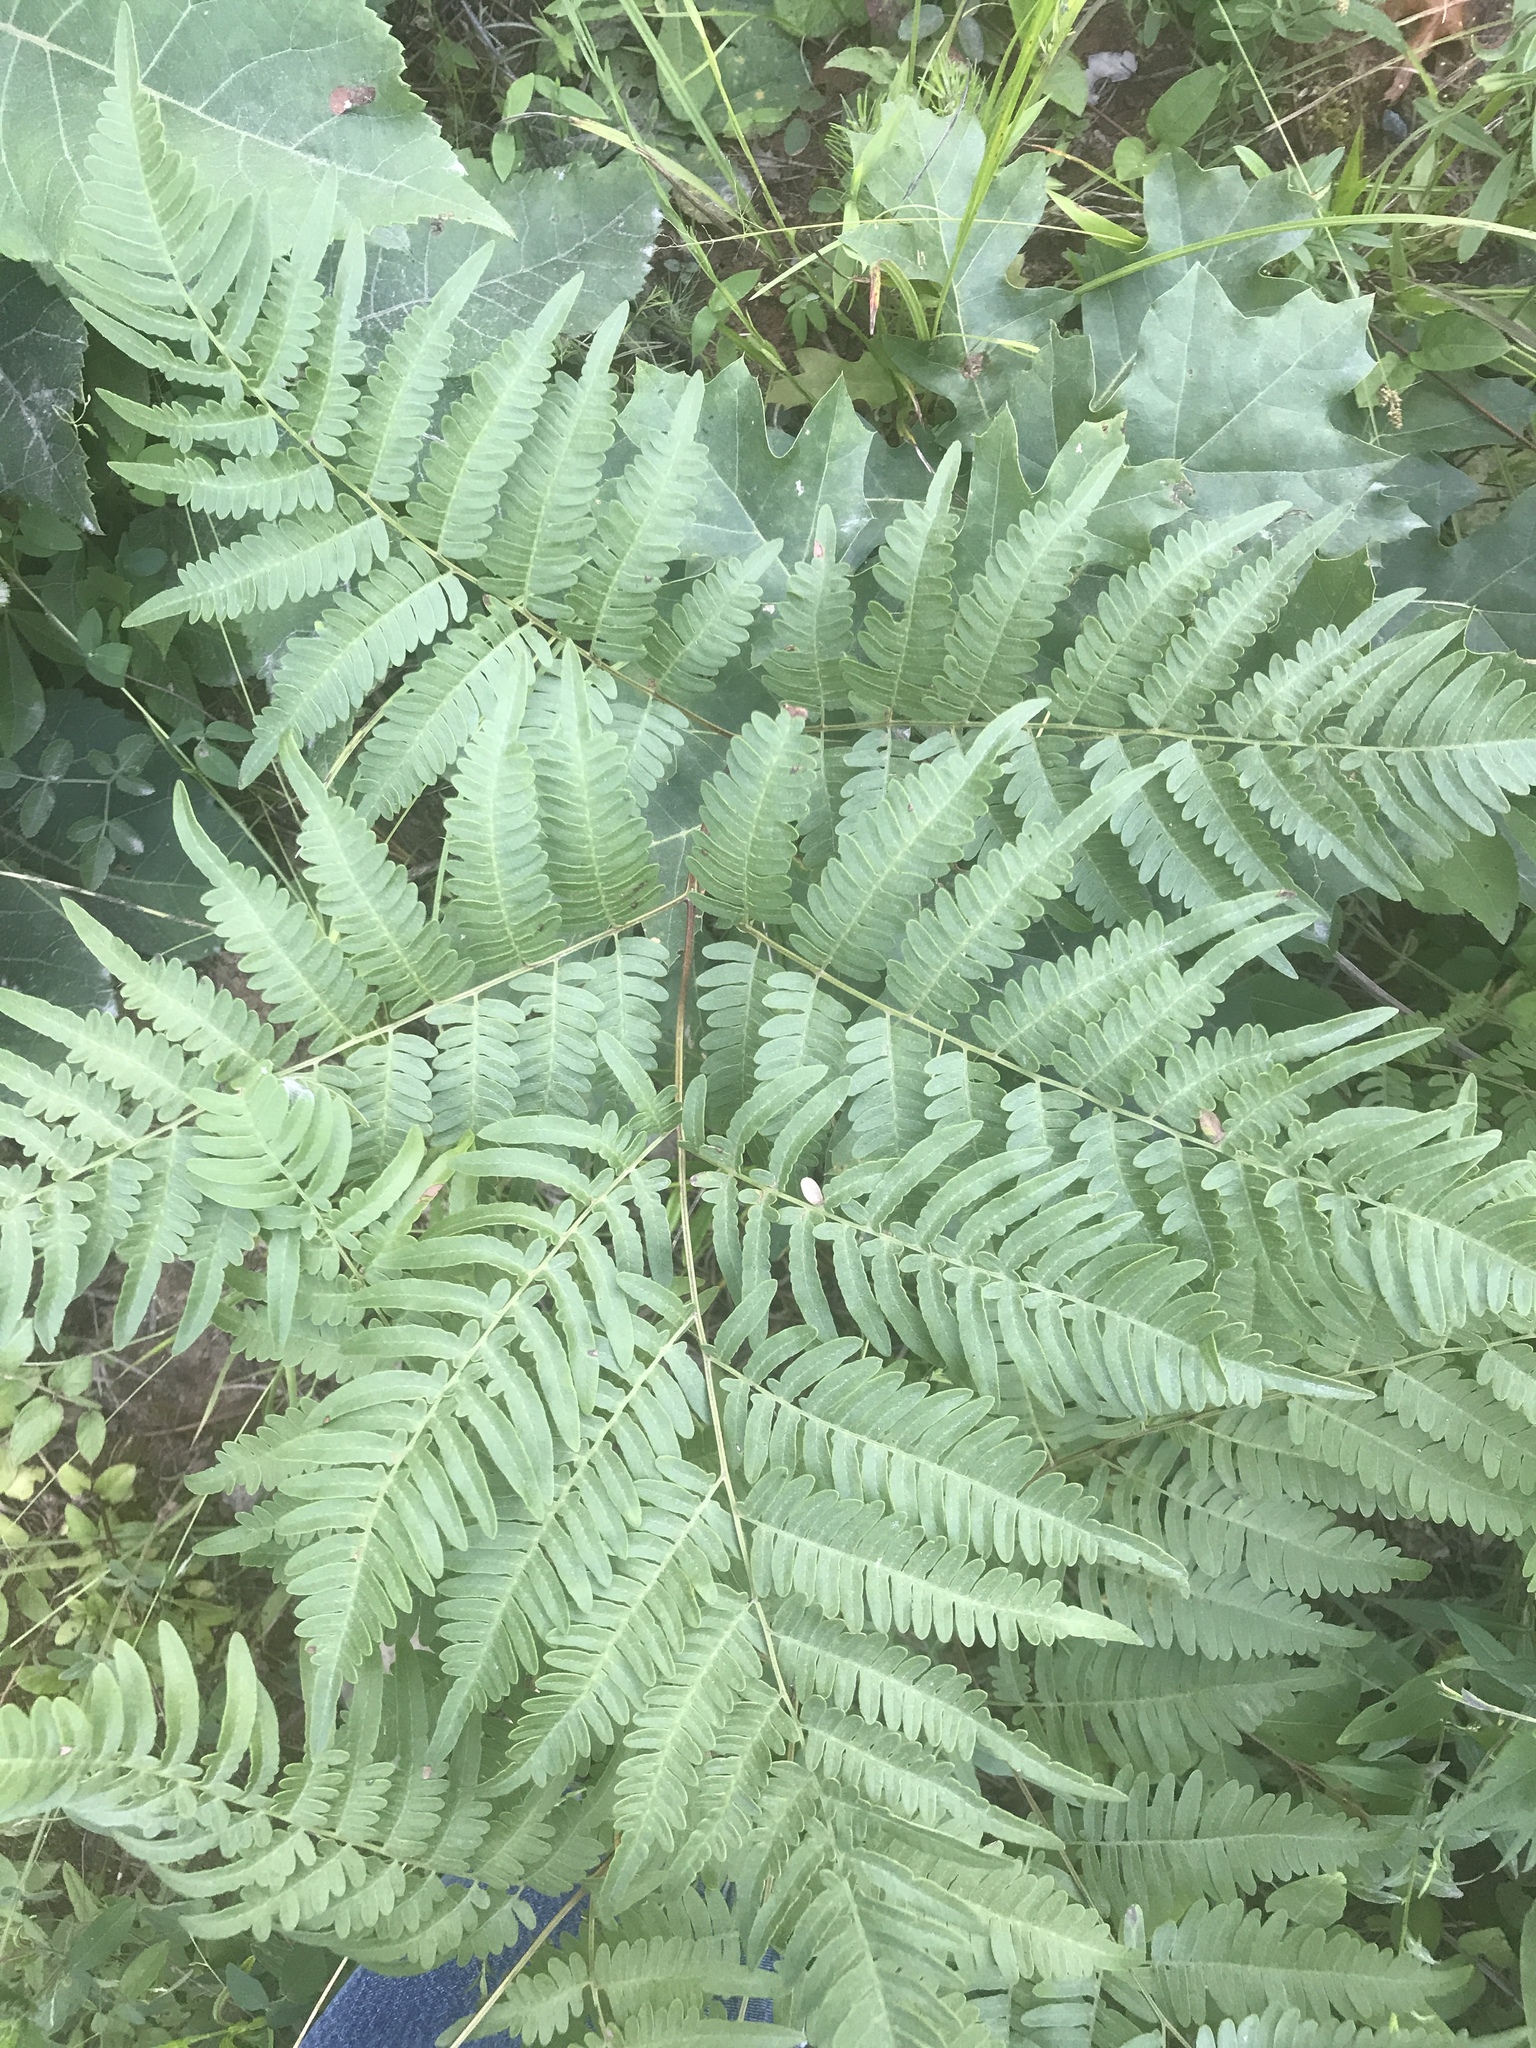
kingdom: Plantae
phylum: Tracheophyta
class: Polypodiopsida
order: Polypodiales
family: Dennstaedtiaceae
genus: Pteridium
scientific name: Pteridium aquilinum
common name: Bracken
